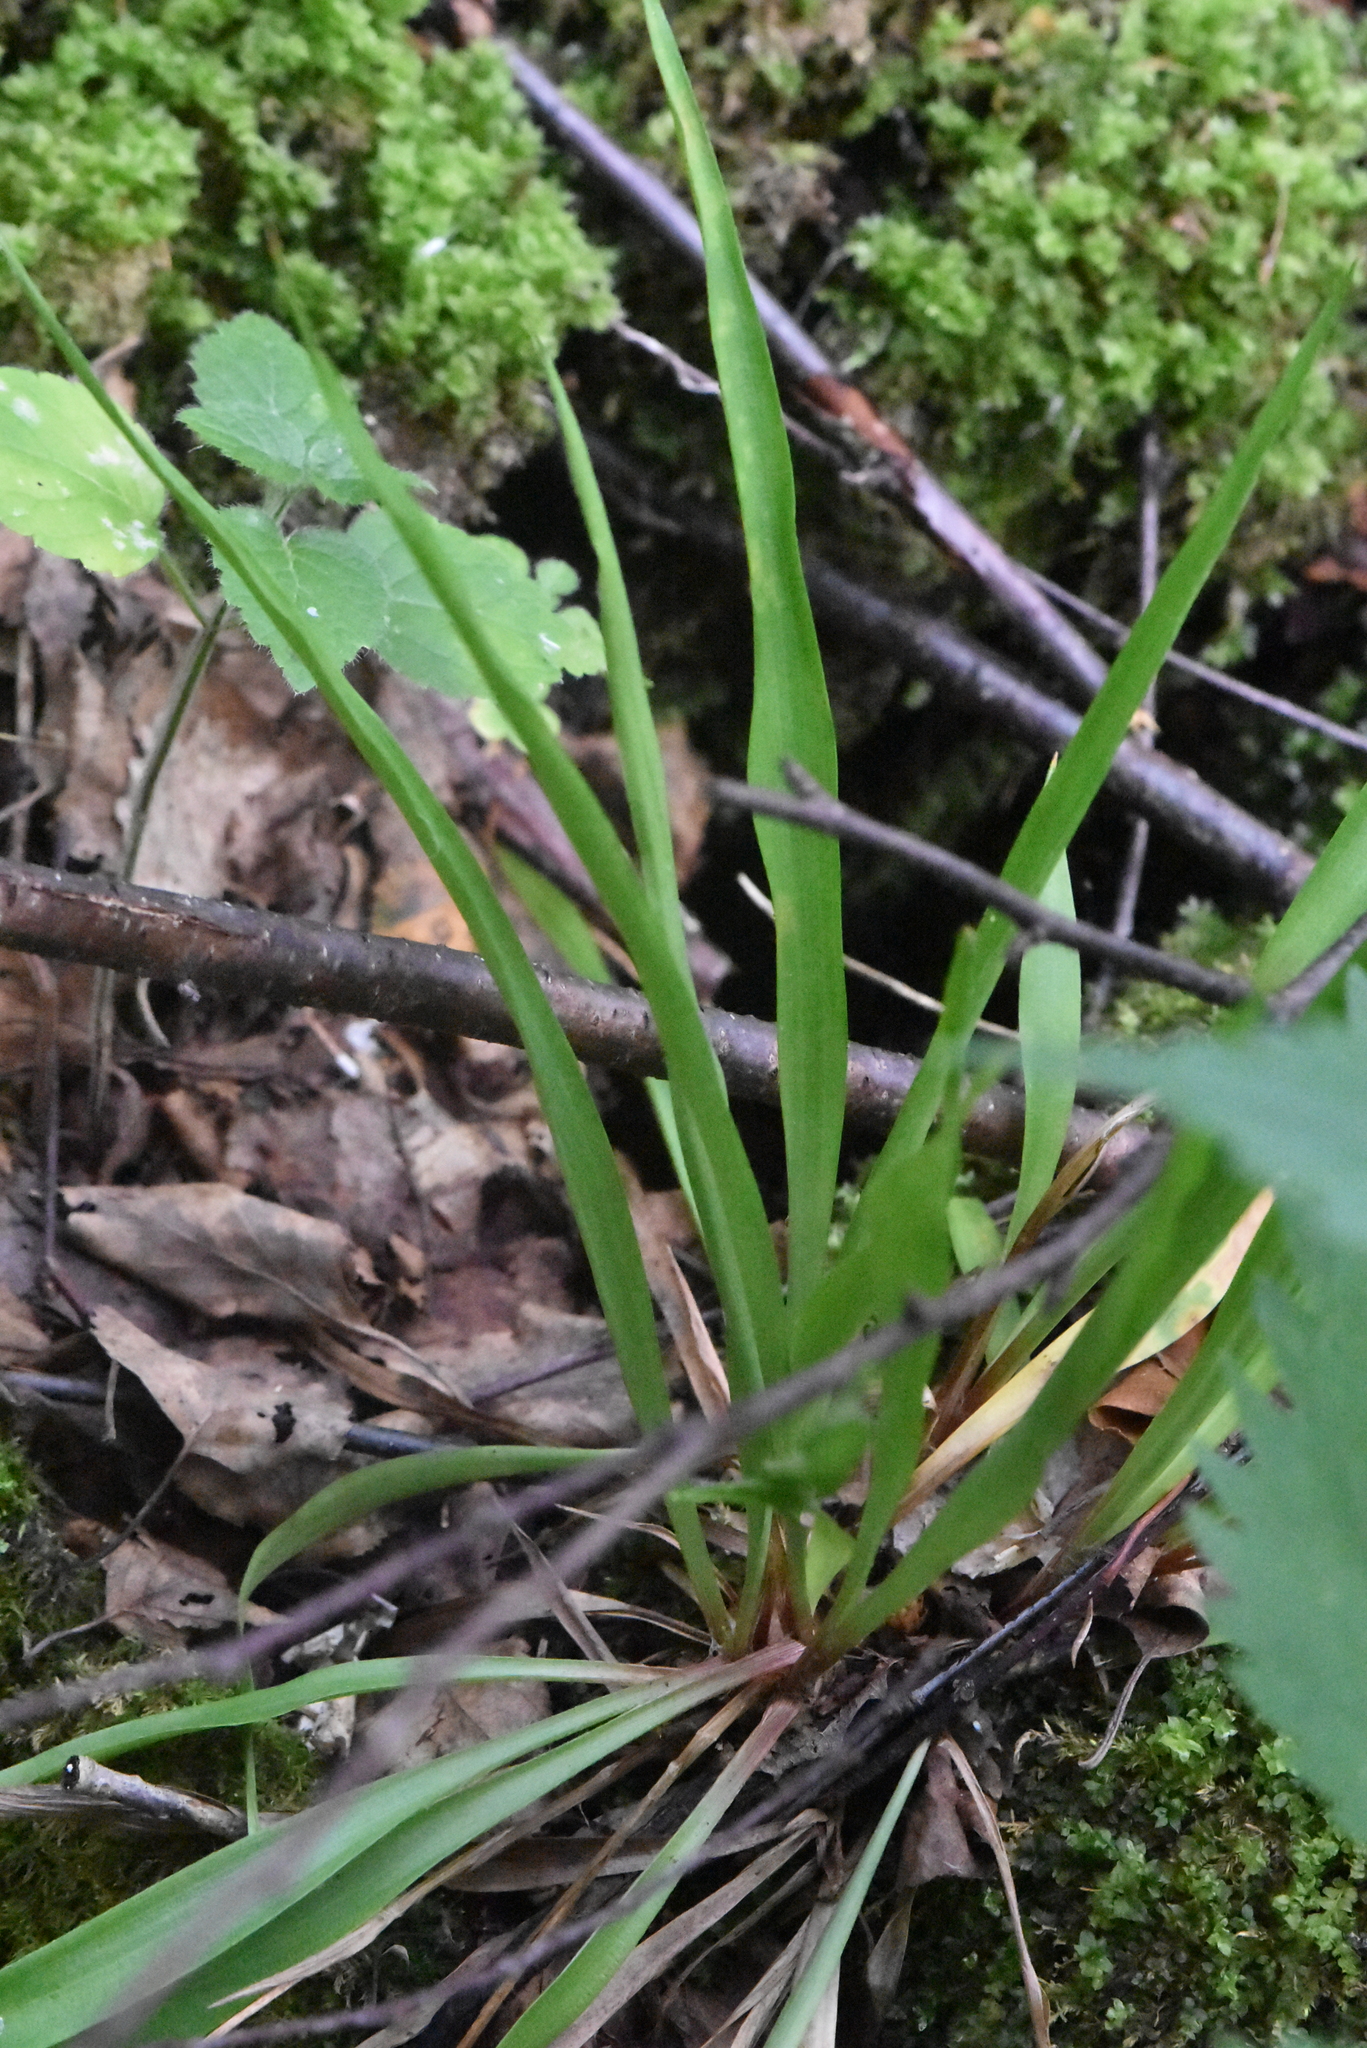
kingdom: Plantae
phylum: Tracheophyta
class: Liliopsida
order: Poales
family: Juncaceae
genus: Luzula
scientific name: Luzula pilosa
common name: Hairy wood-rush
